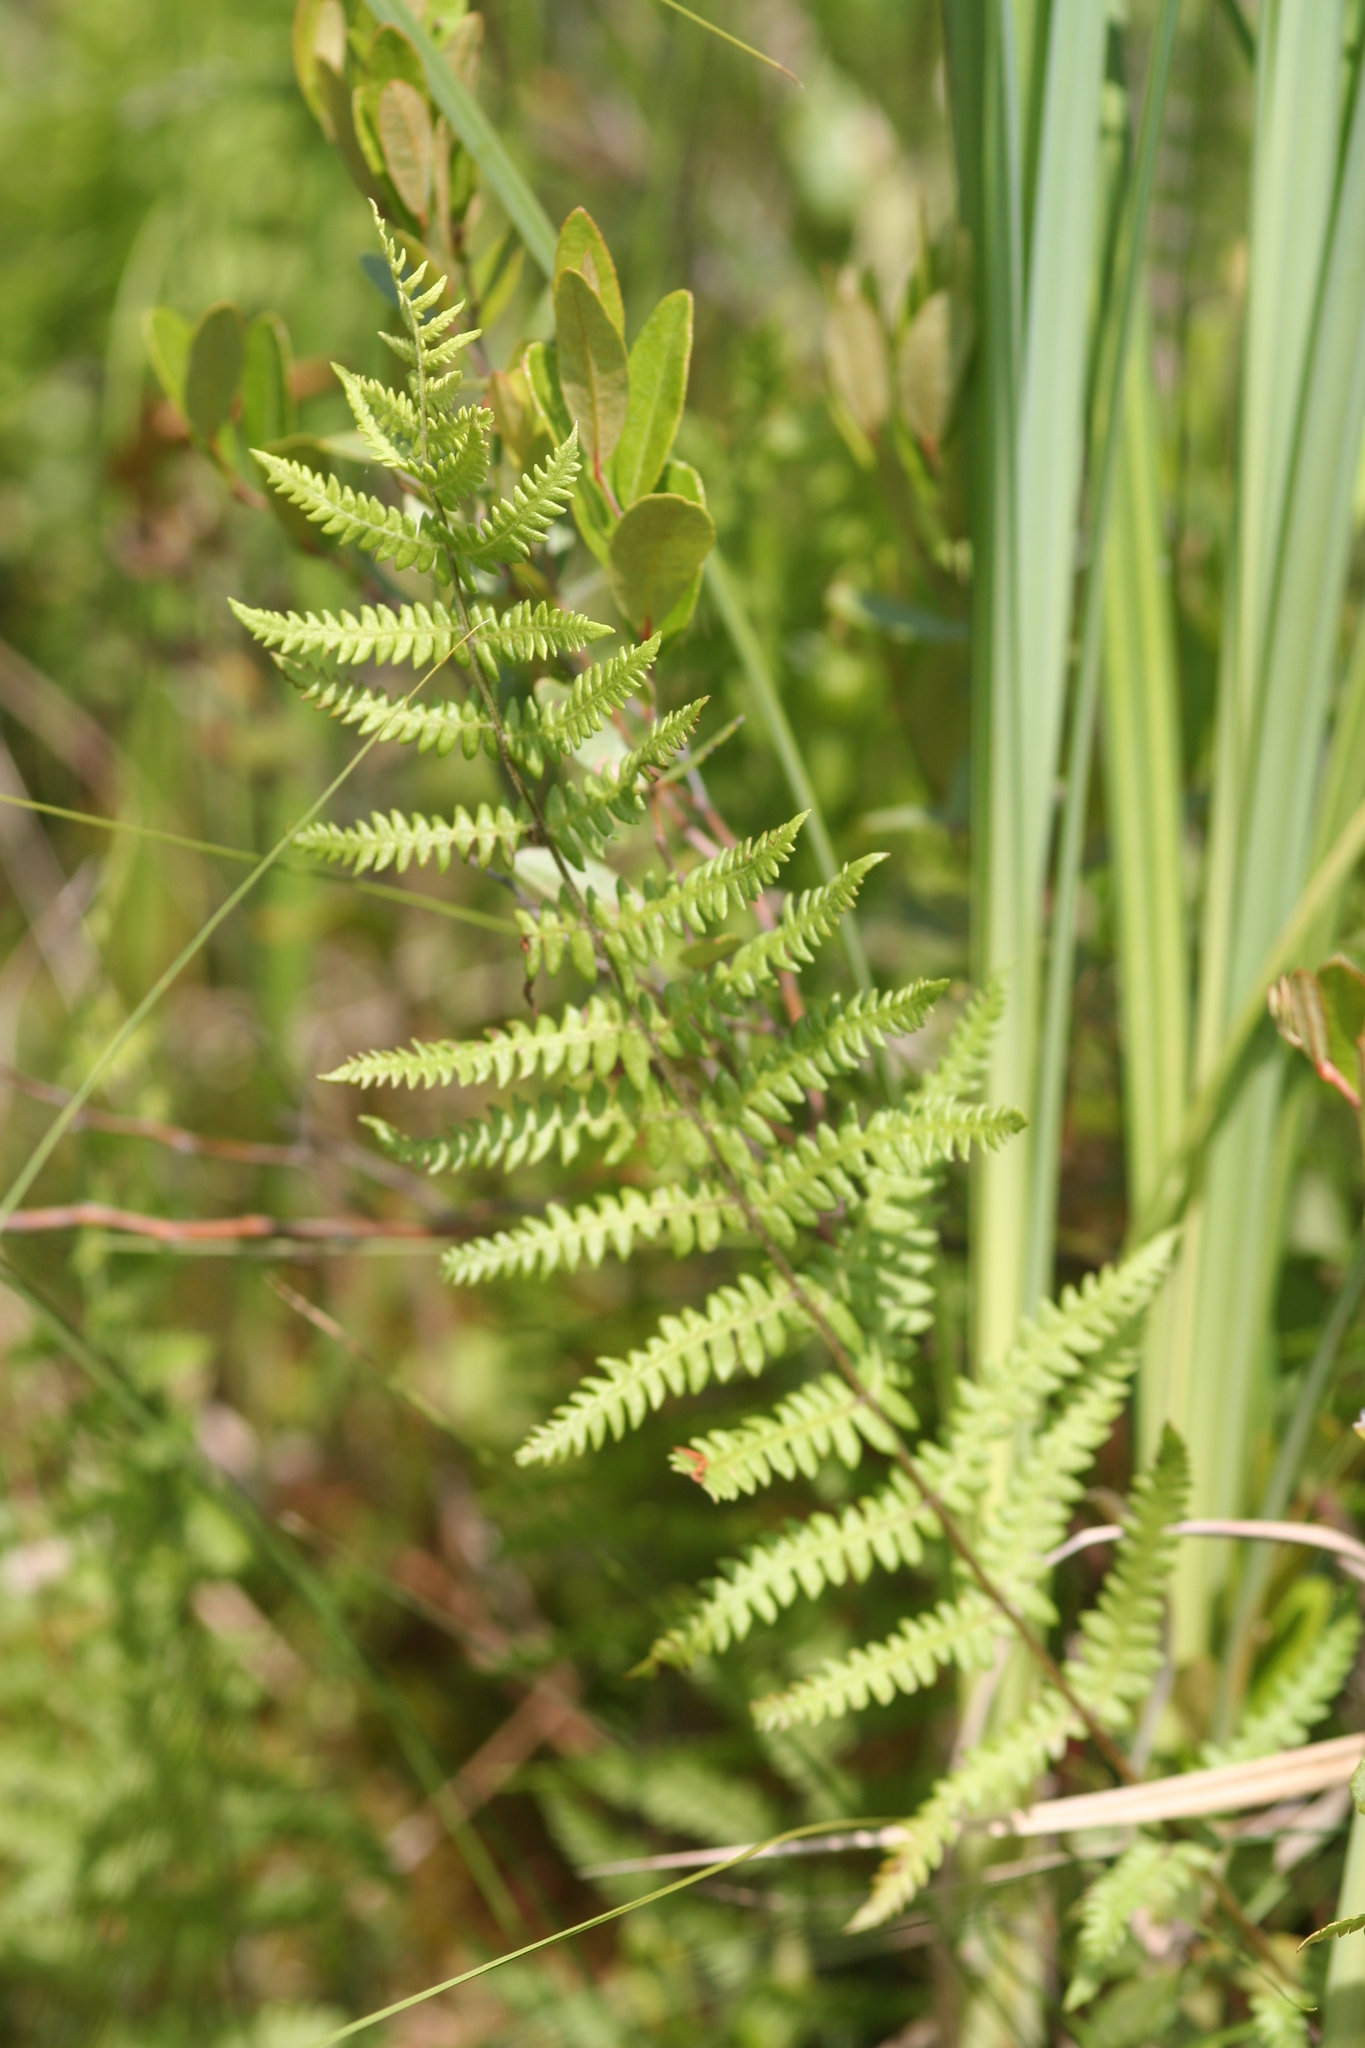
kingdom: Plantae
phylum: Tracheophyta
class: Polypodiopsida
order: Polypodiales
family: Thelypteridaceae
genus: Thelypteris
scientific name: Thelypteris palustris
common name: Marsh fern
